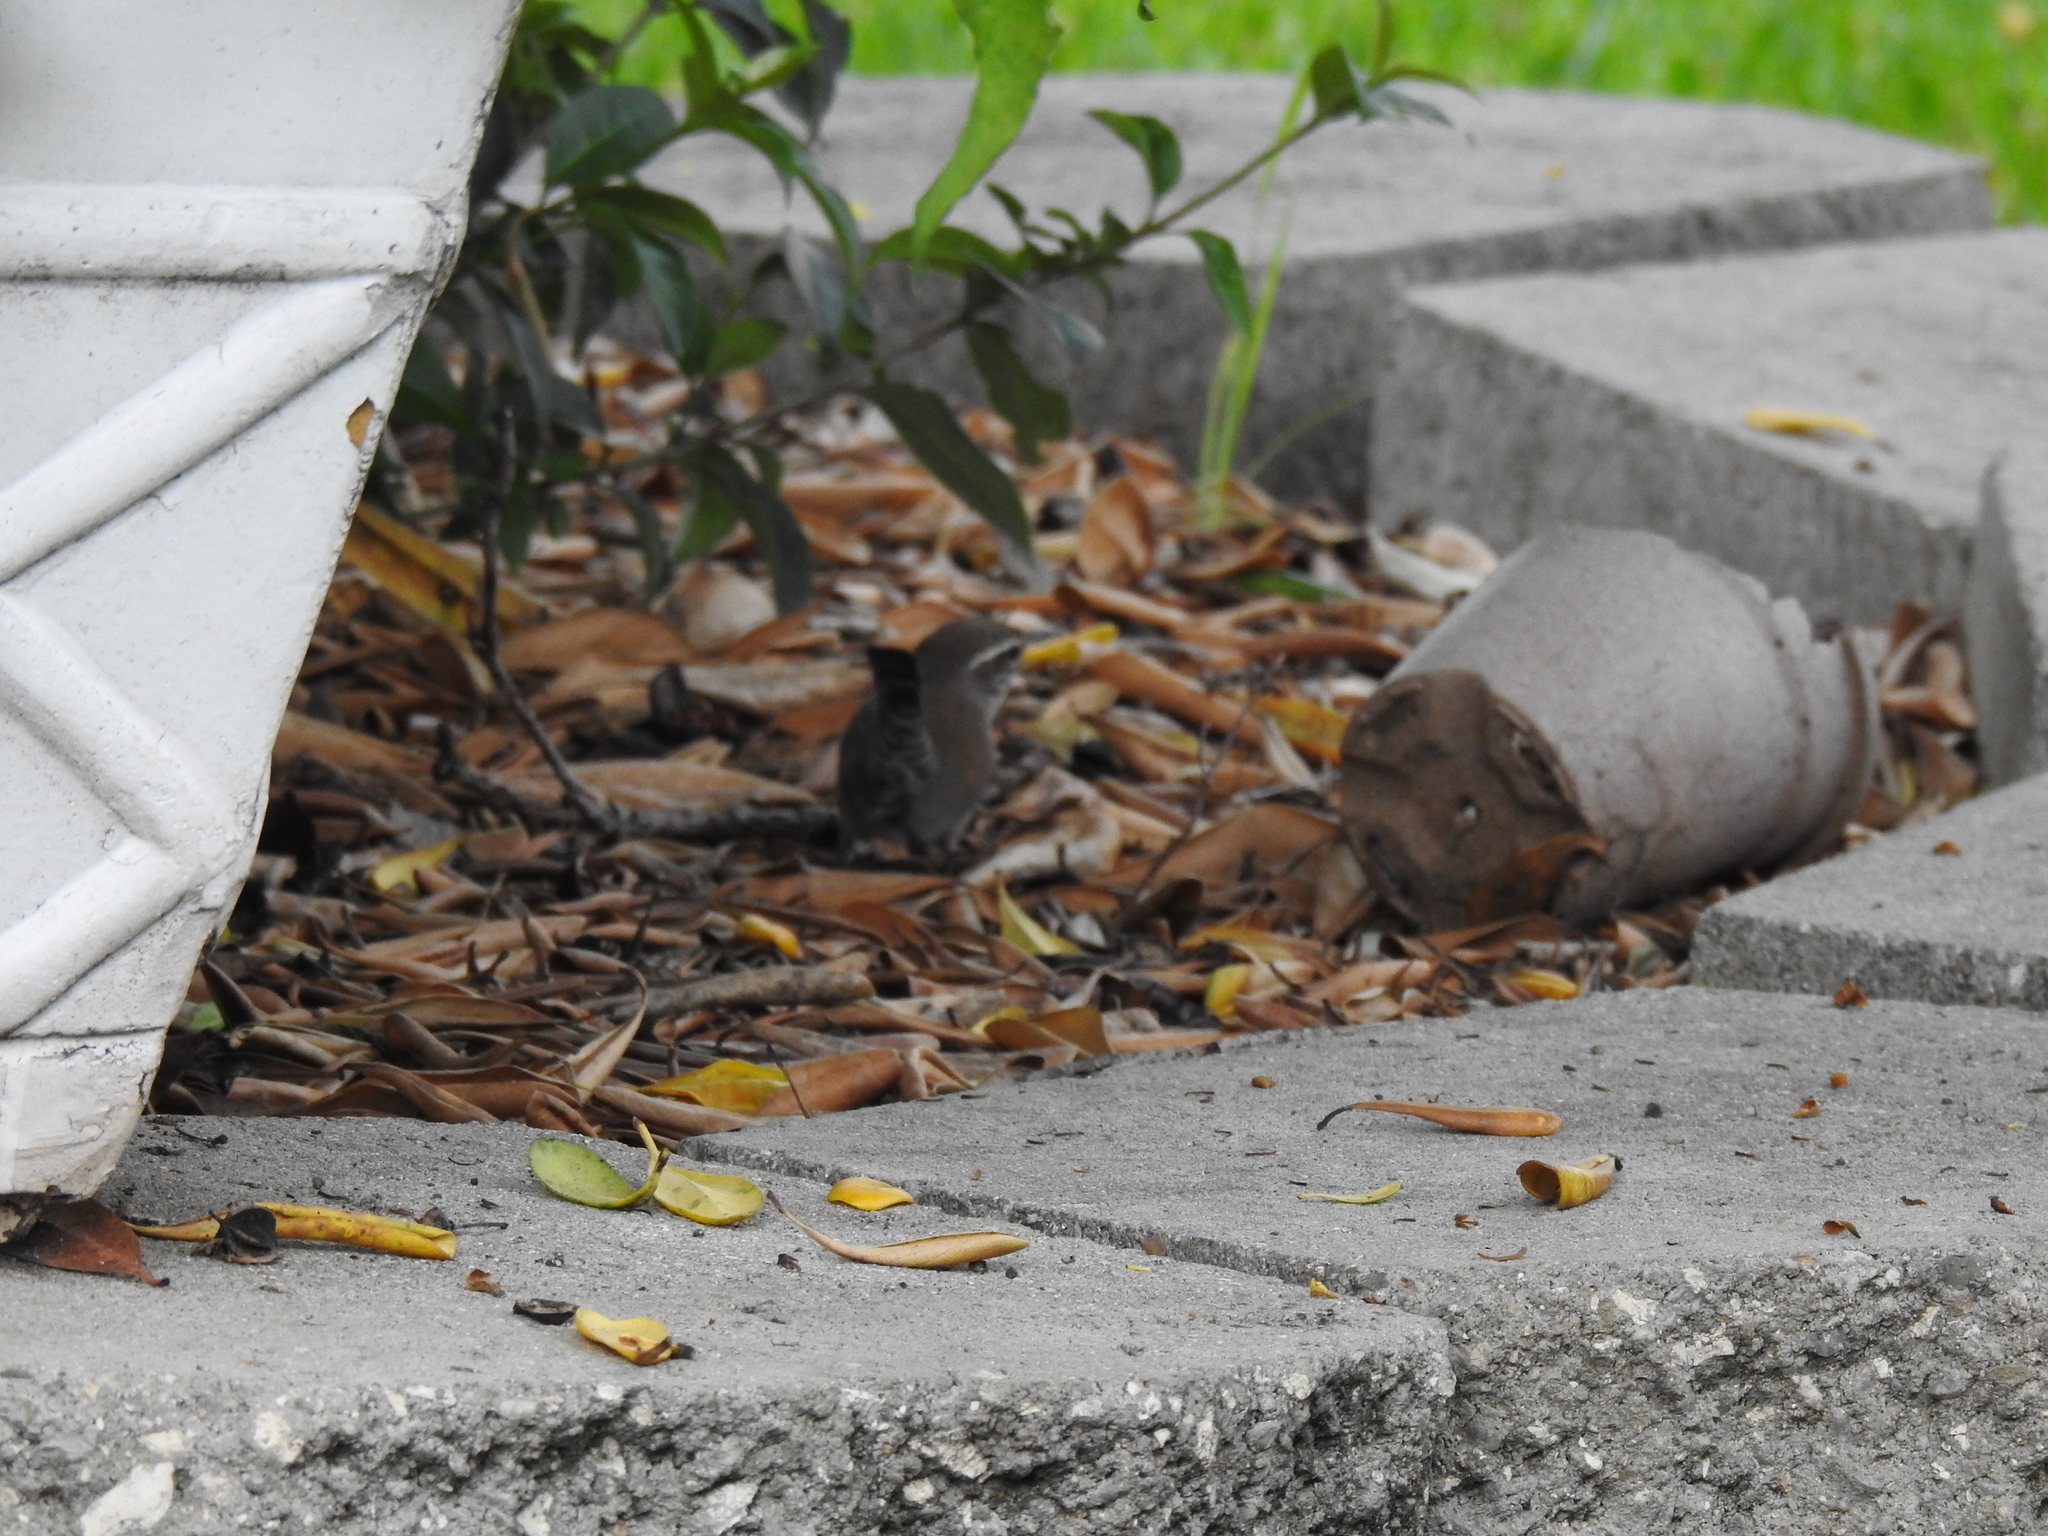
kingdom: Animalia
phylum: Chordata
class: Aves
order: Passeriformes
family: Troglodytidae
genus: Thryomanes
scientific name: Thryomanes bewickii
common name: Bewick's wren
